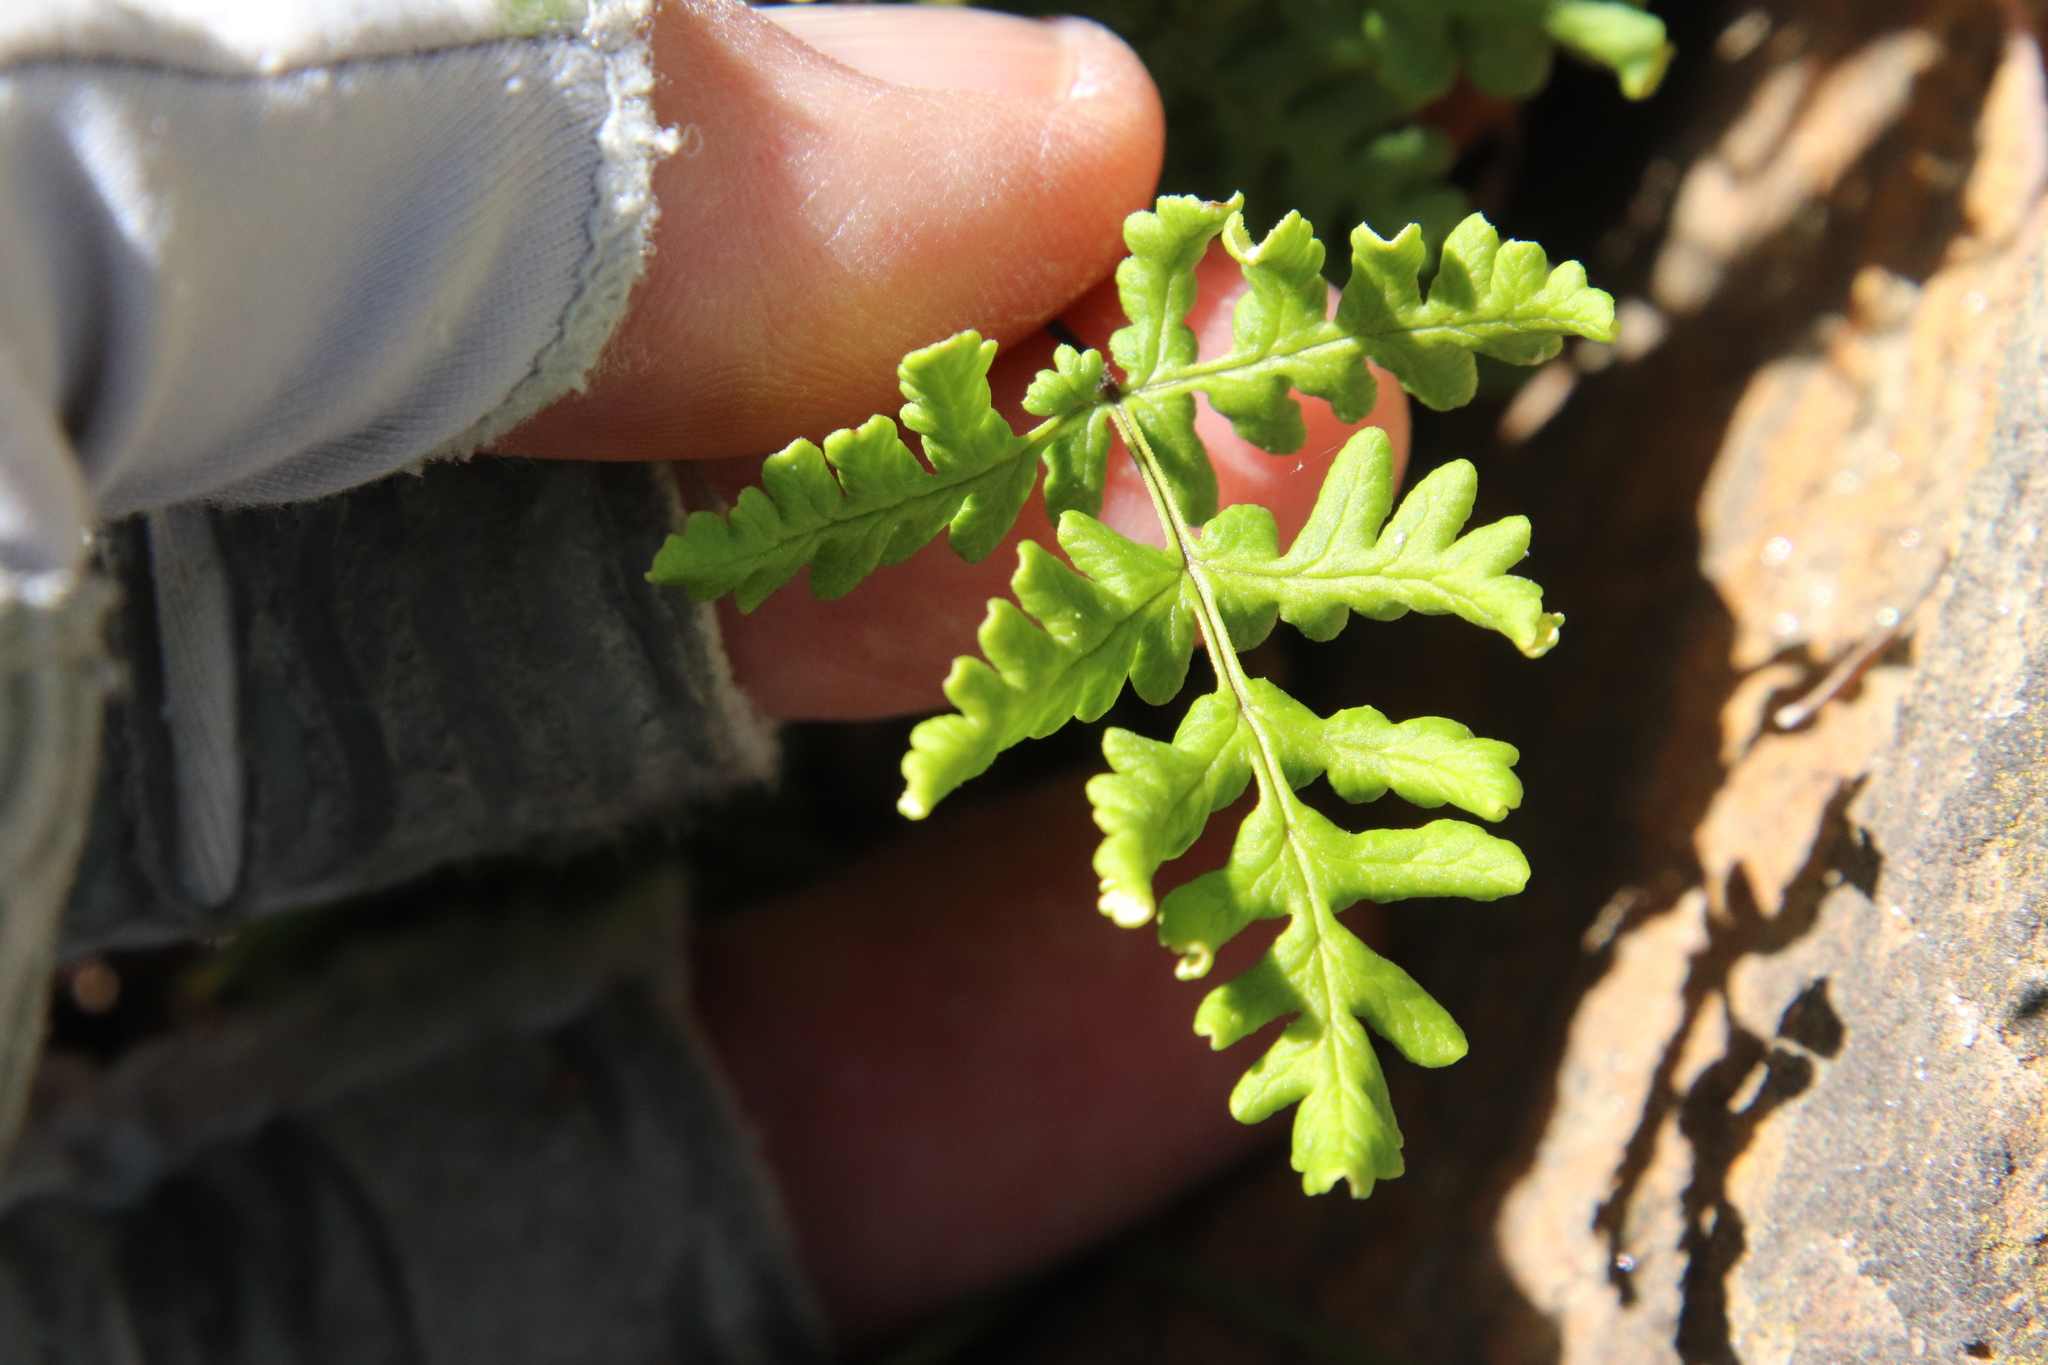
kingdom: Plantae
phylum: Tracheophyta
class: Polypodiopsida
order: Polypodiales
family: Pteridaceae
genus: Pentagramma
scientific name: Pentagramma triangularis
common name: Gold fern
